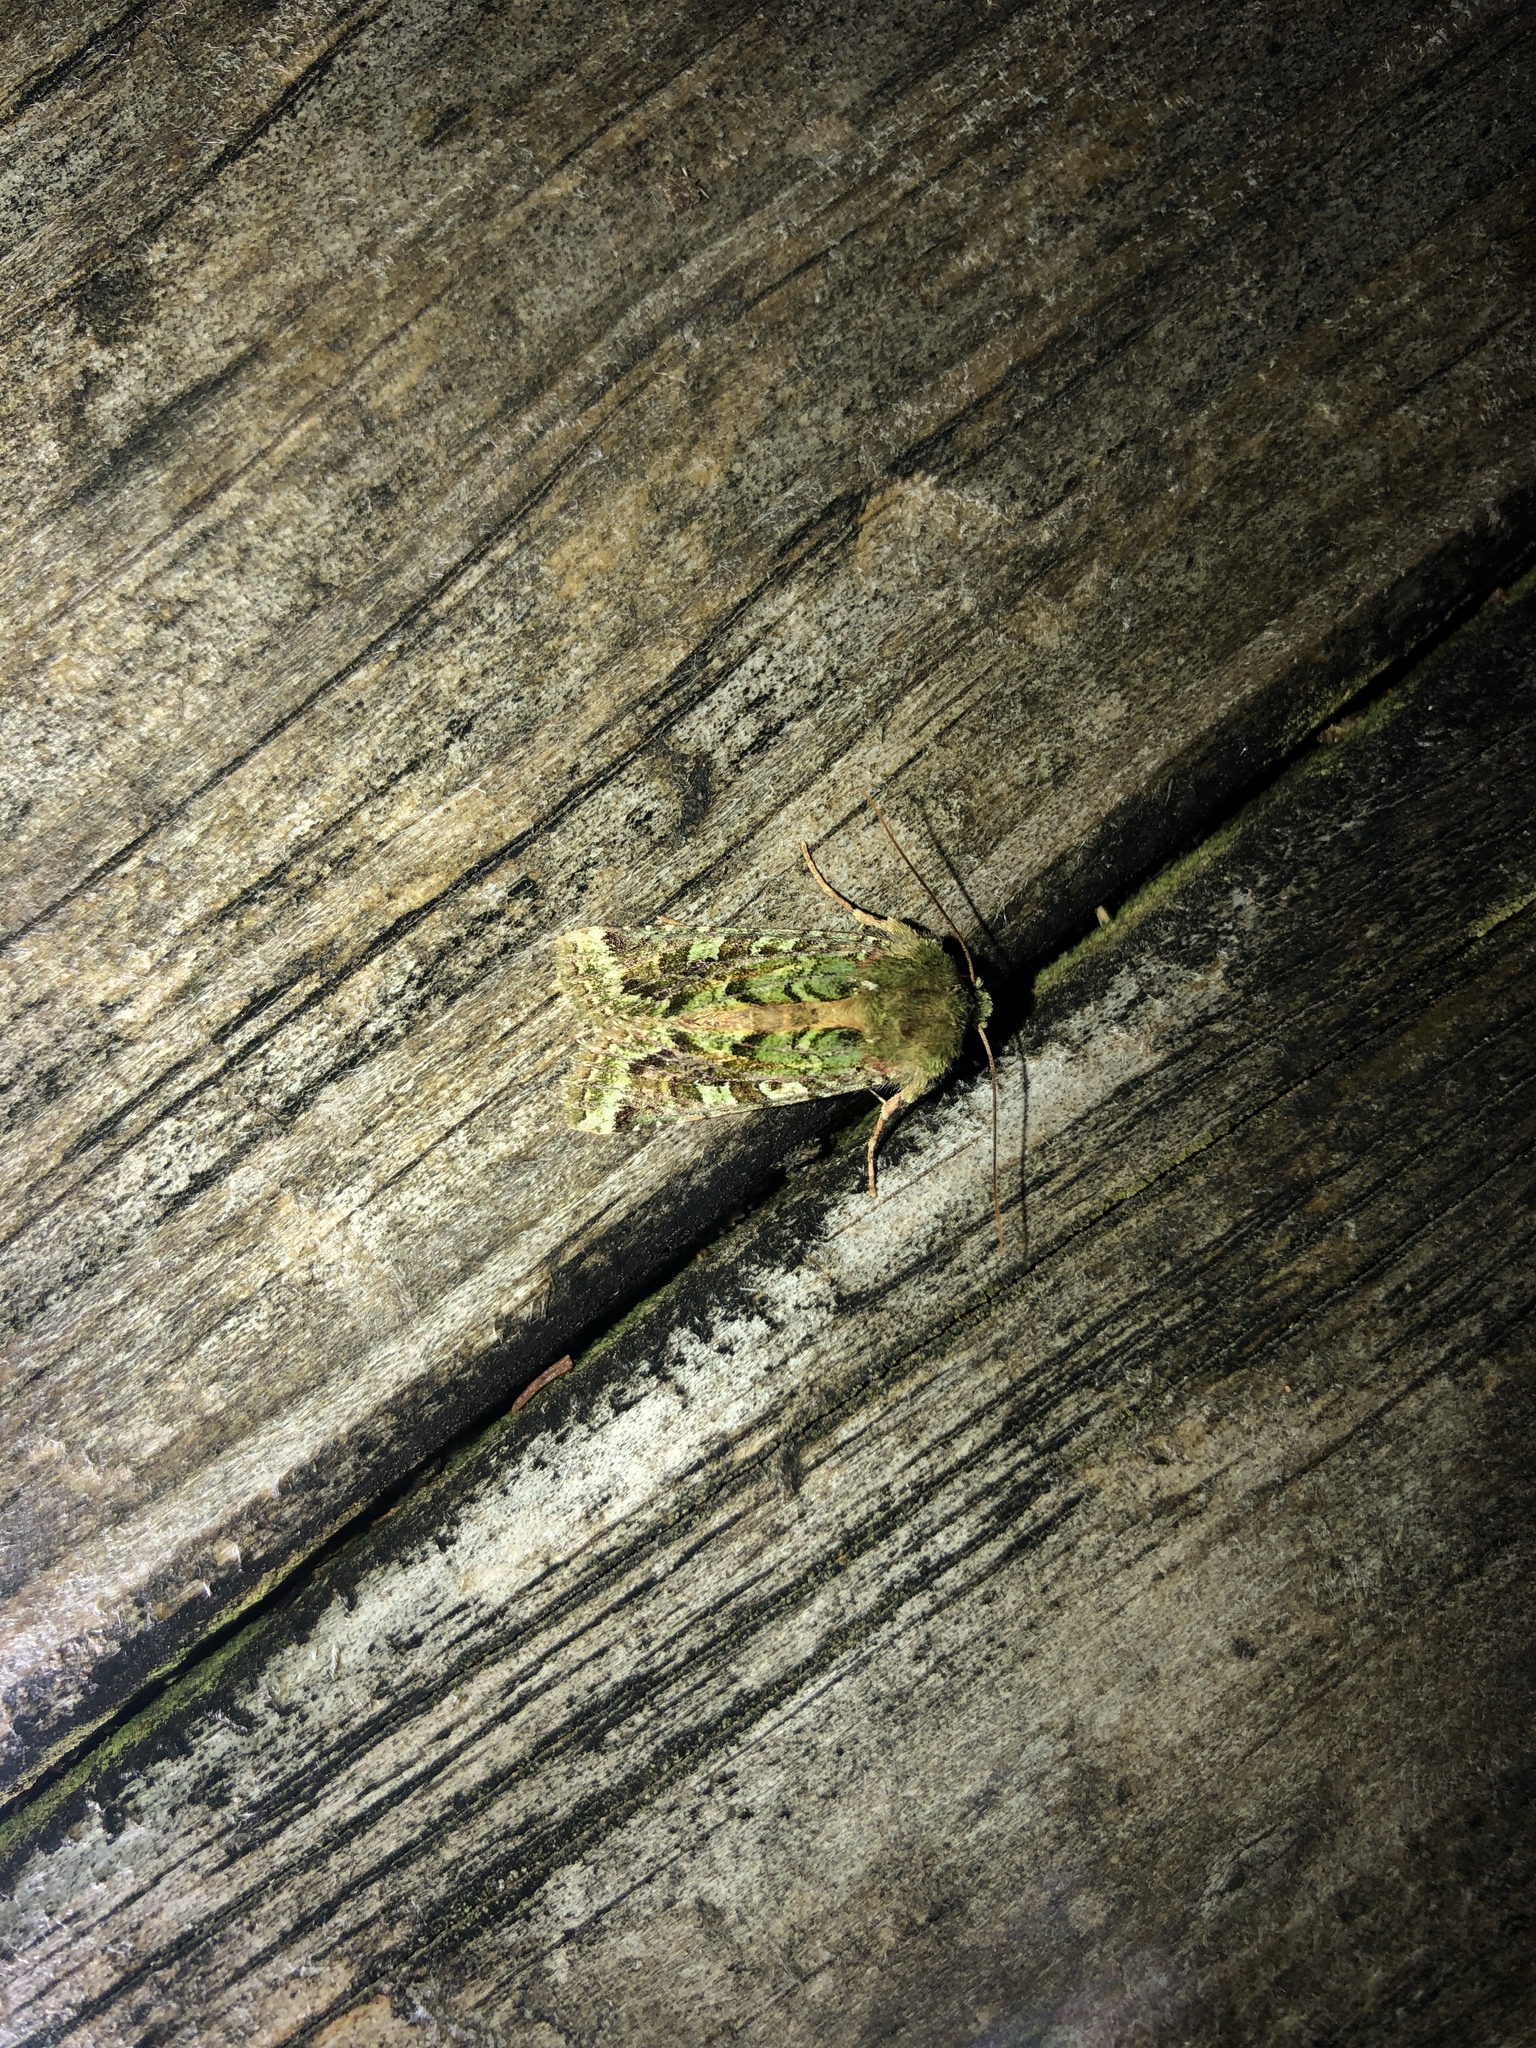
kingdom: Animalia
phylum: Arthropoda
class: Insecta
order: Lepidoptera
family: Noctuidae
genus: Feredayia
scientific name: Feredayia grammosa
